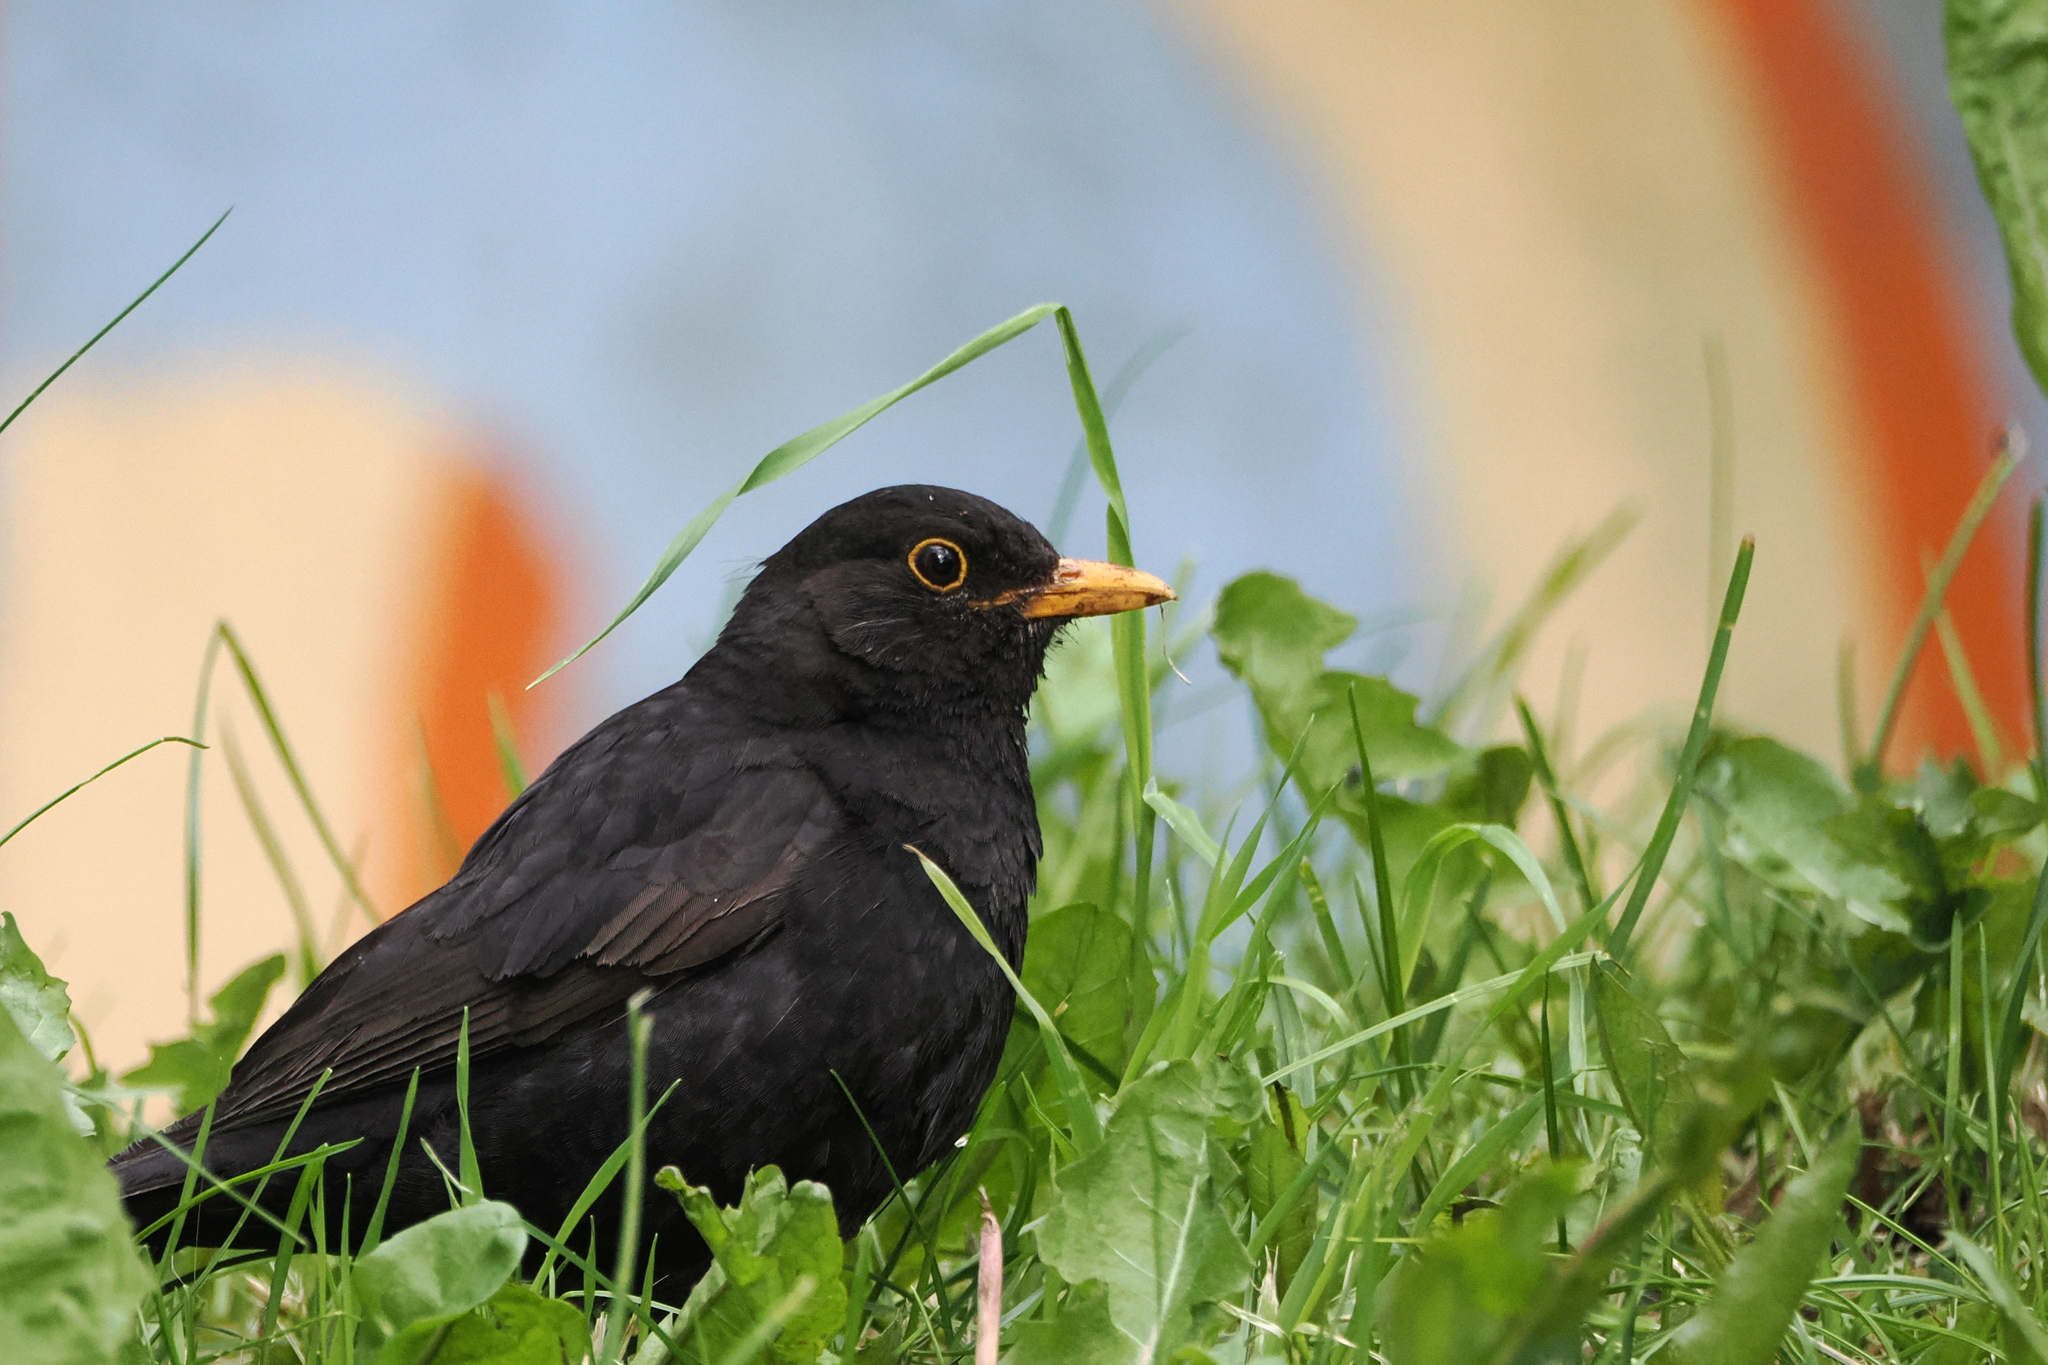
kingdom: Animalia
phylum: Chordata
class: Aves
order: Passeriformes
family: Turdidae
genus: Turdus
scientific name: Turdus merula
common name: Common blackbird
